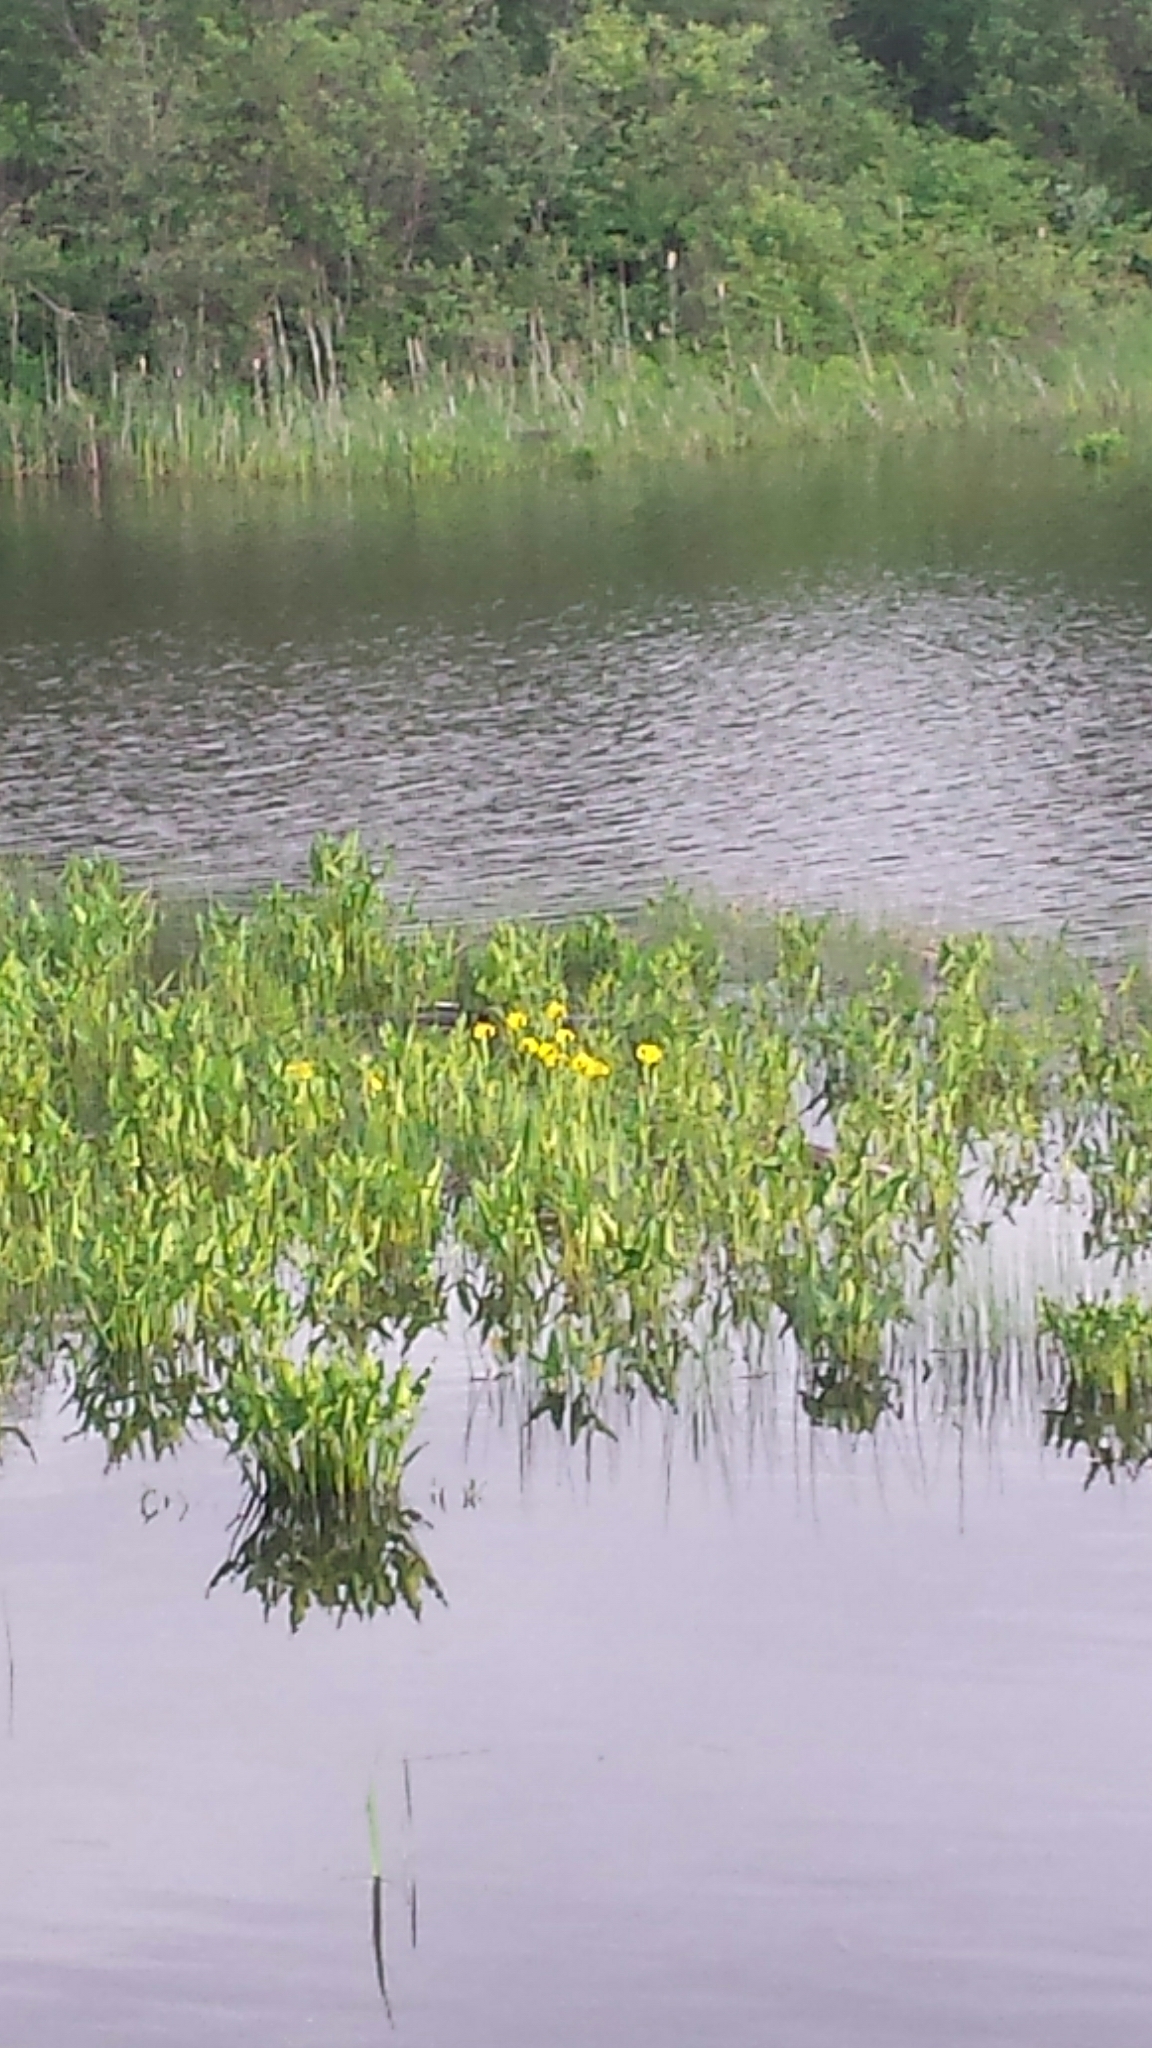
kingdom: Plantae
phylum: Tracheophyta
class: Liliopsida
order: Asparagales
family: Iridaceae
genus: Iris
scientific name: Iris pseudacorus
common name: Yellow flag
